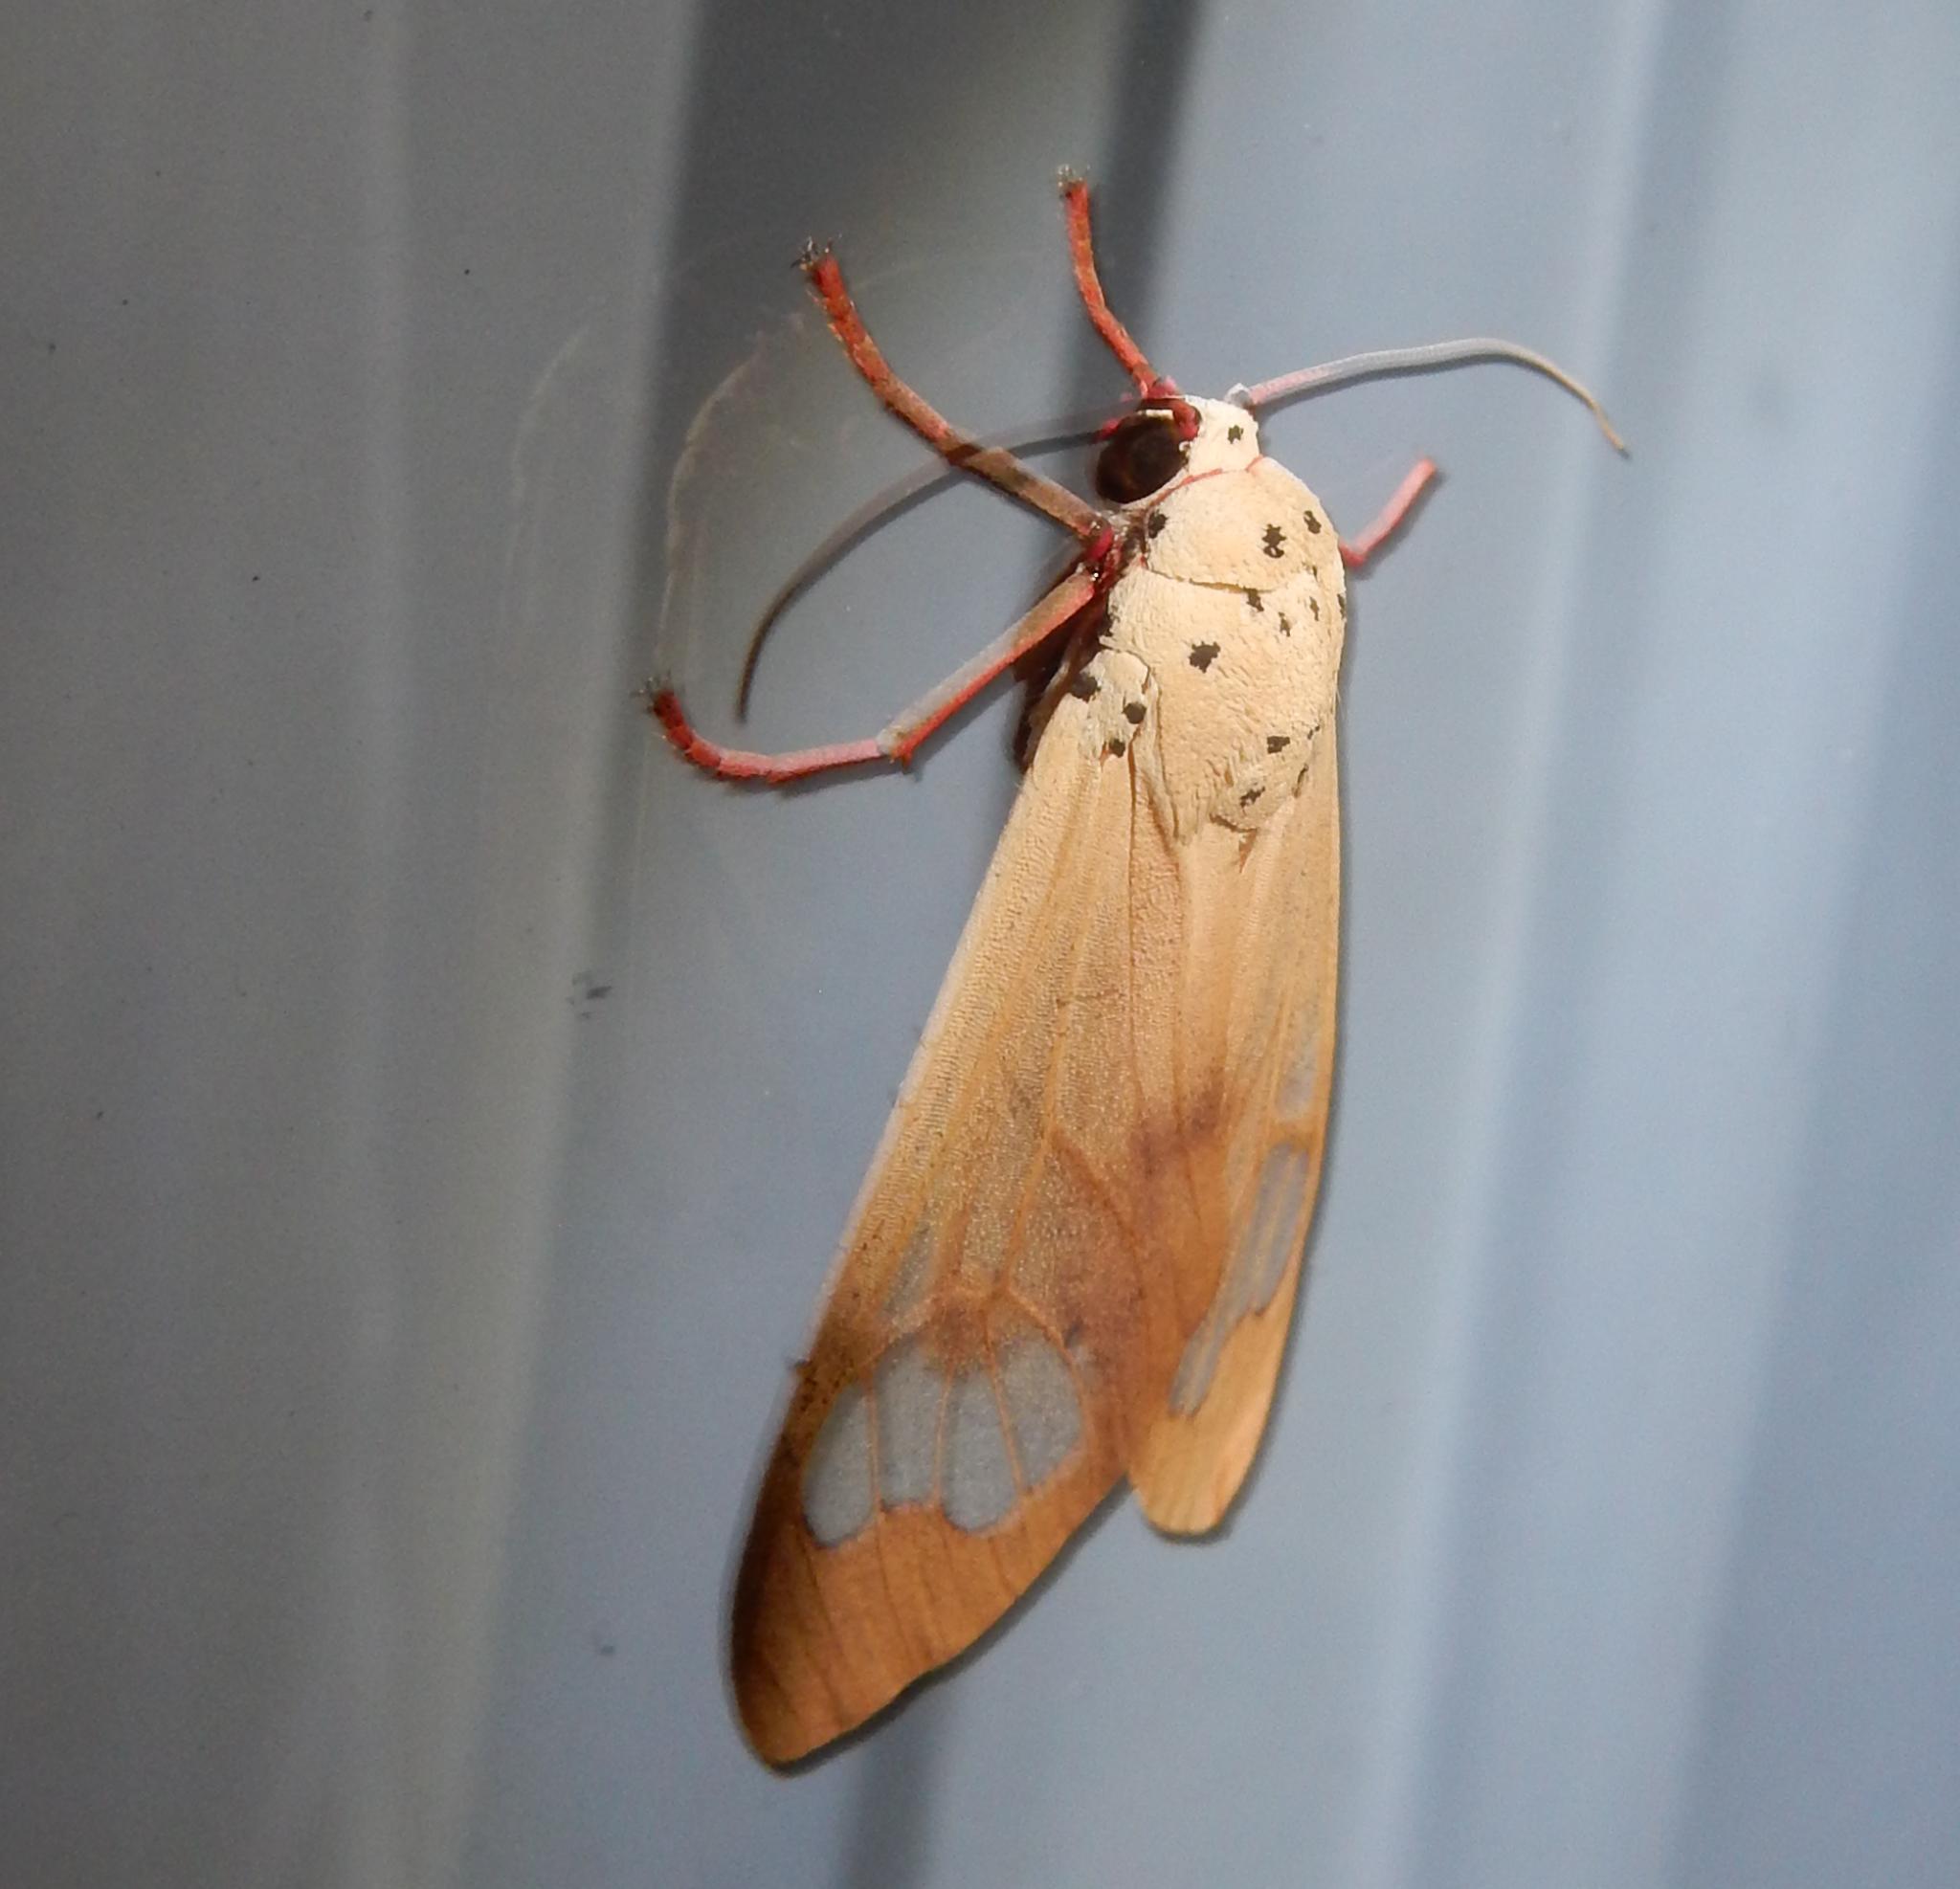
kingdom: Animalia
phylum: Arthropoda
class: Insecta
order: Lepidoptera
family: Erebidae
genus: Amerila
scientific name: Amerila vitrea
